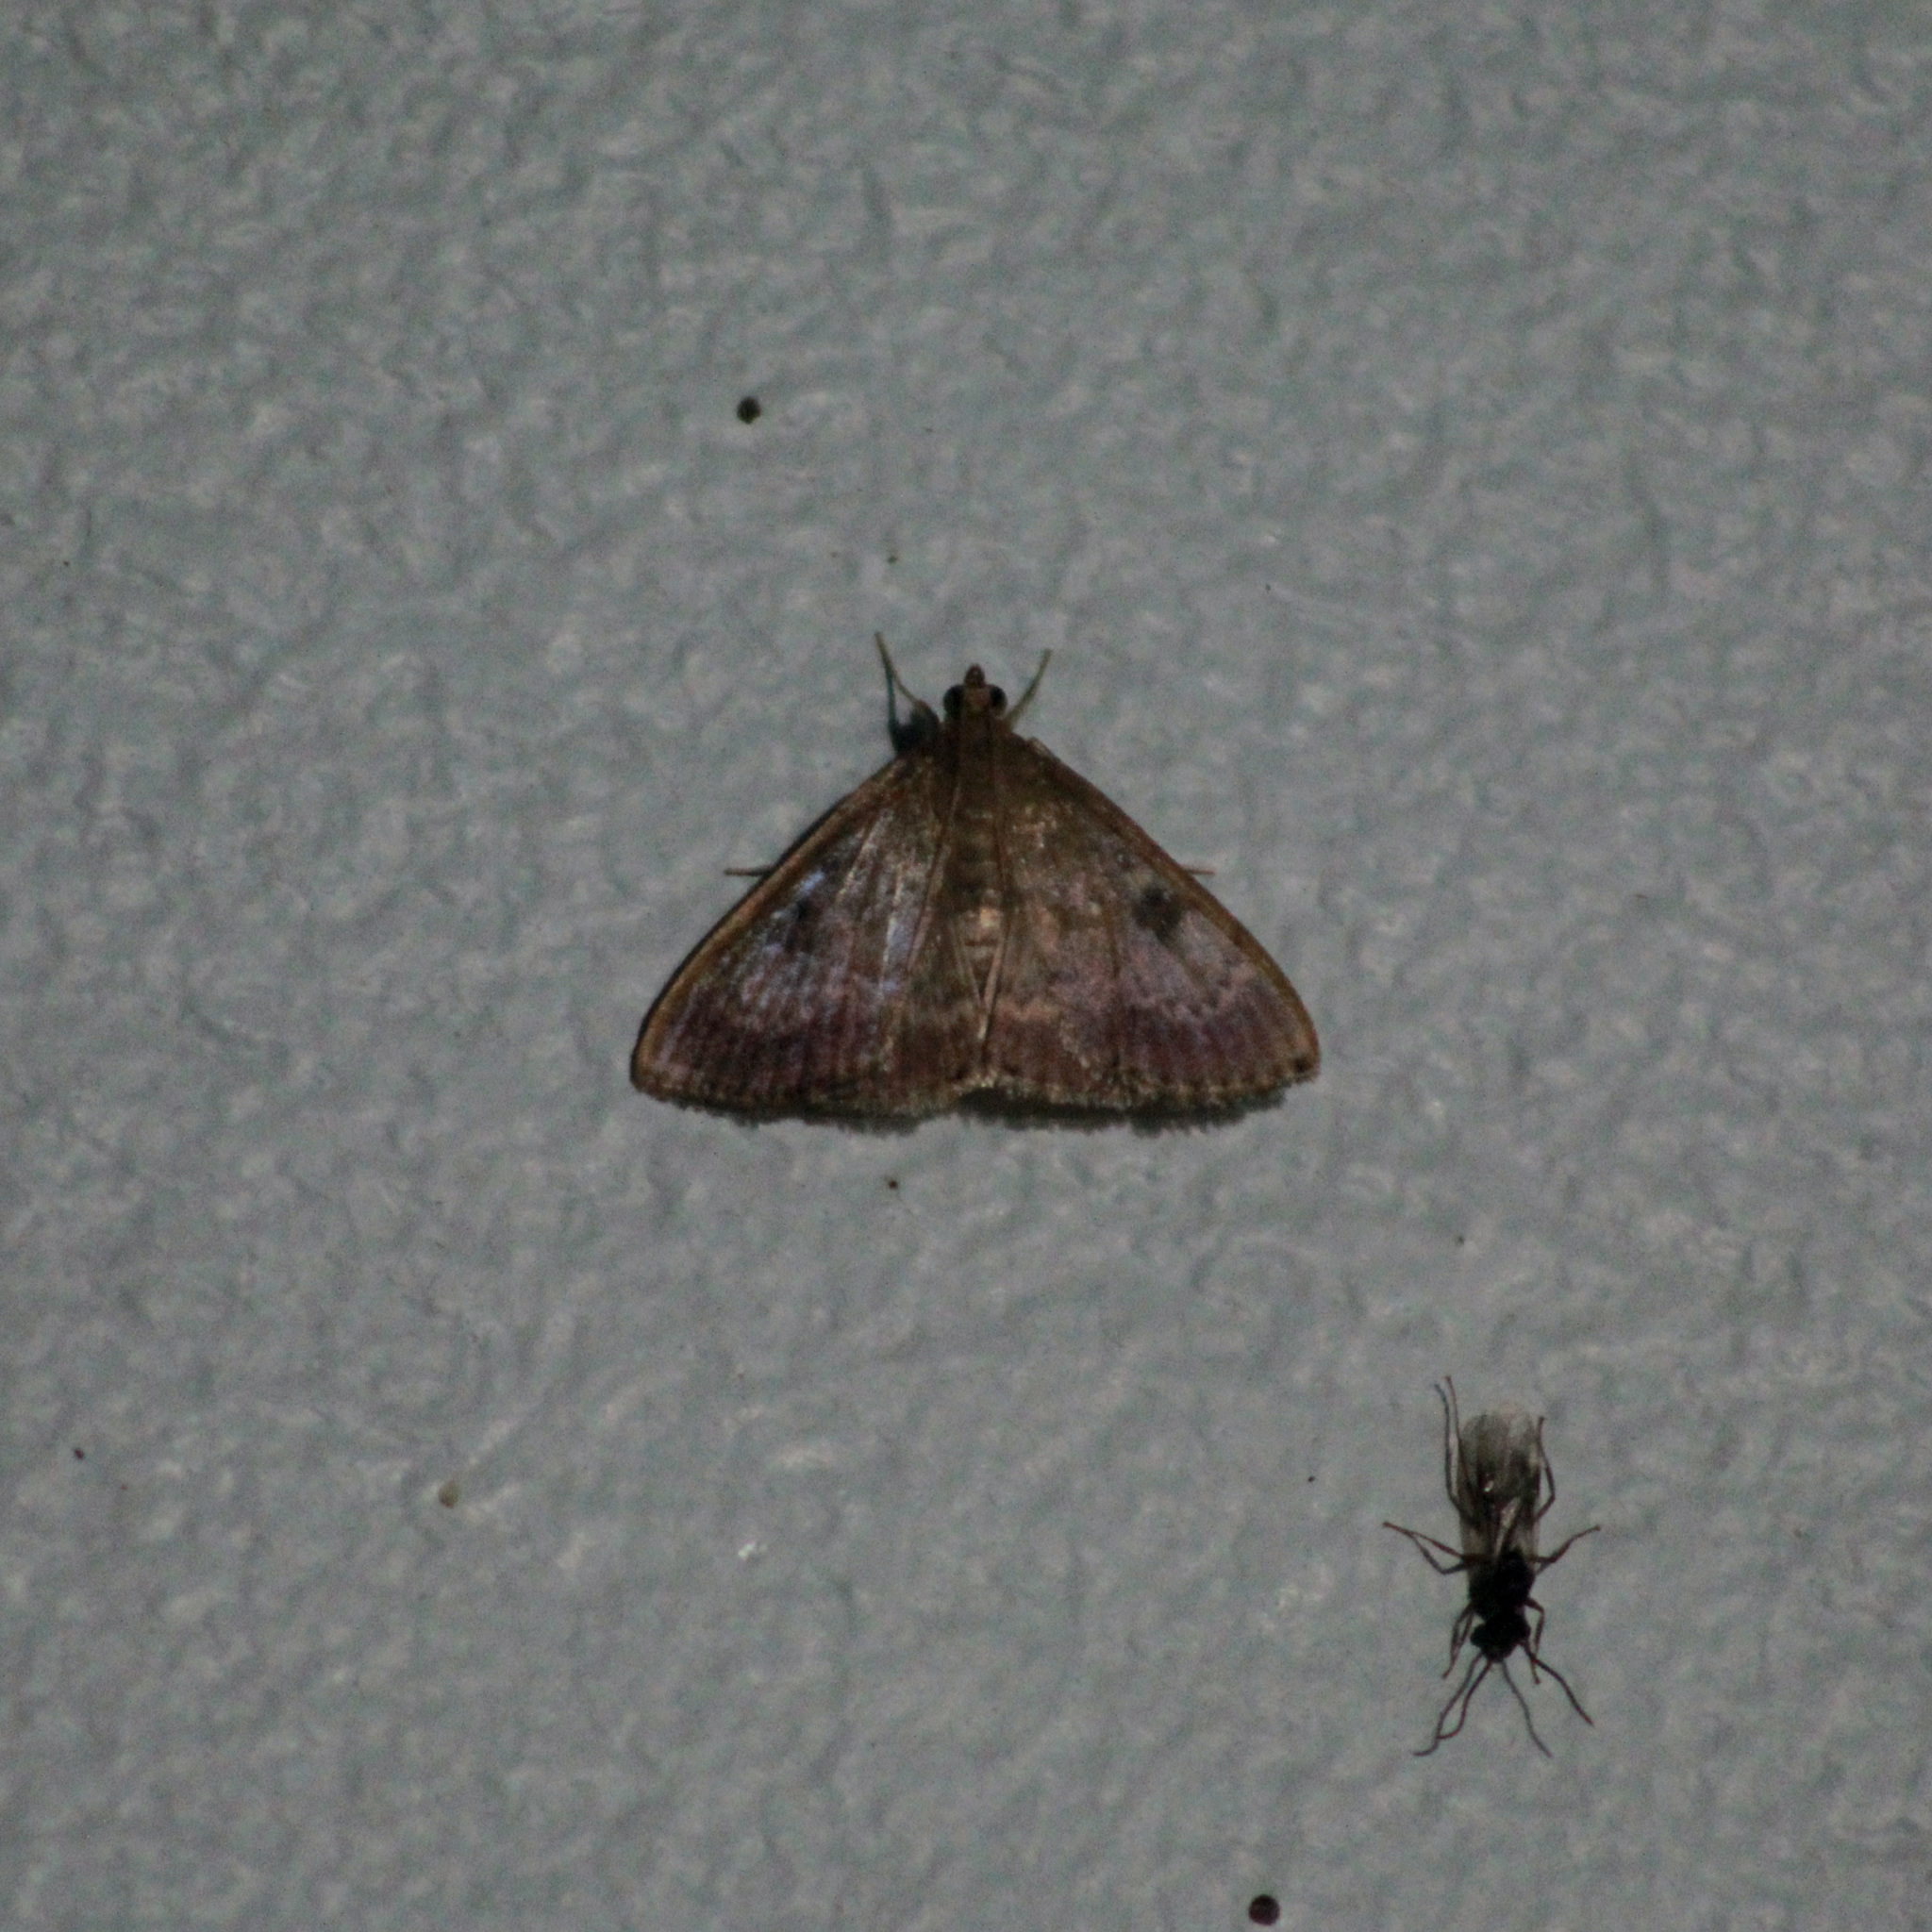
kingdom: Animalia
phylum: Arthropoda
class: Insecta
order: Lepidoptera
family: Crambidae
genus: Phaedropsis
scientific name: Phaedropsis
